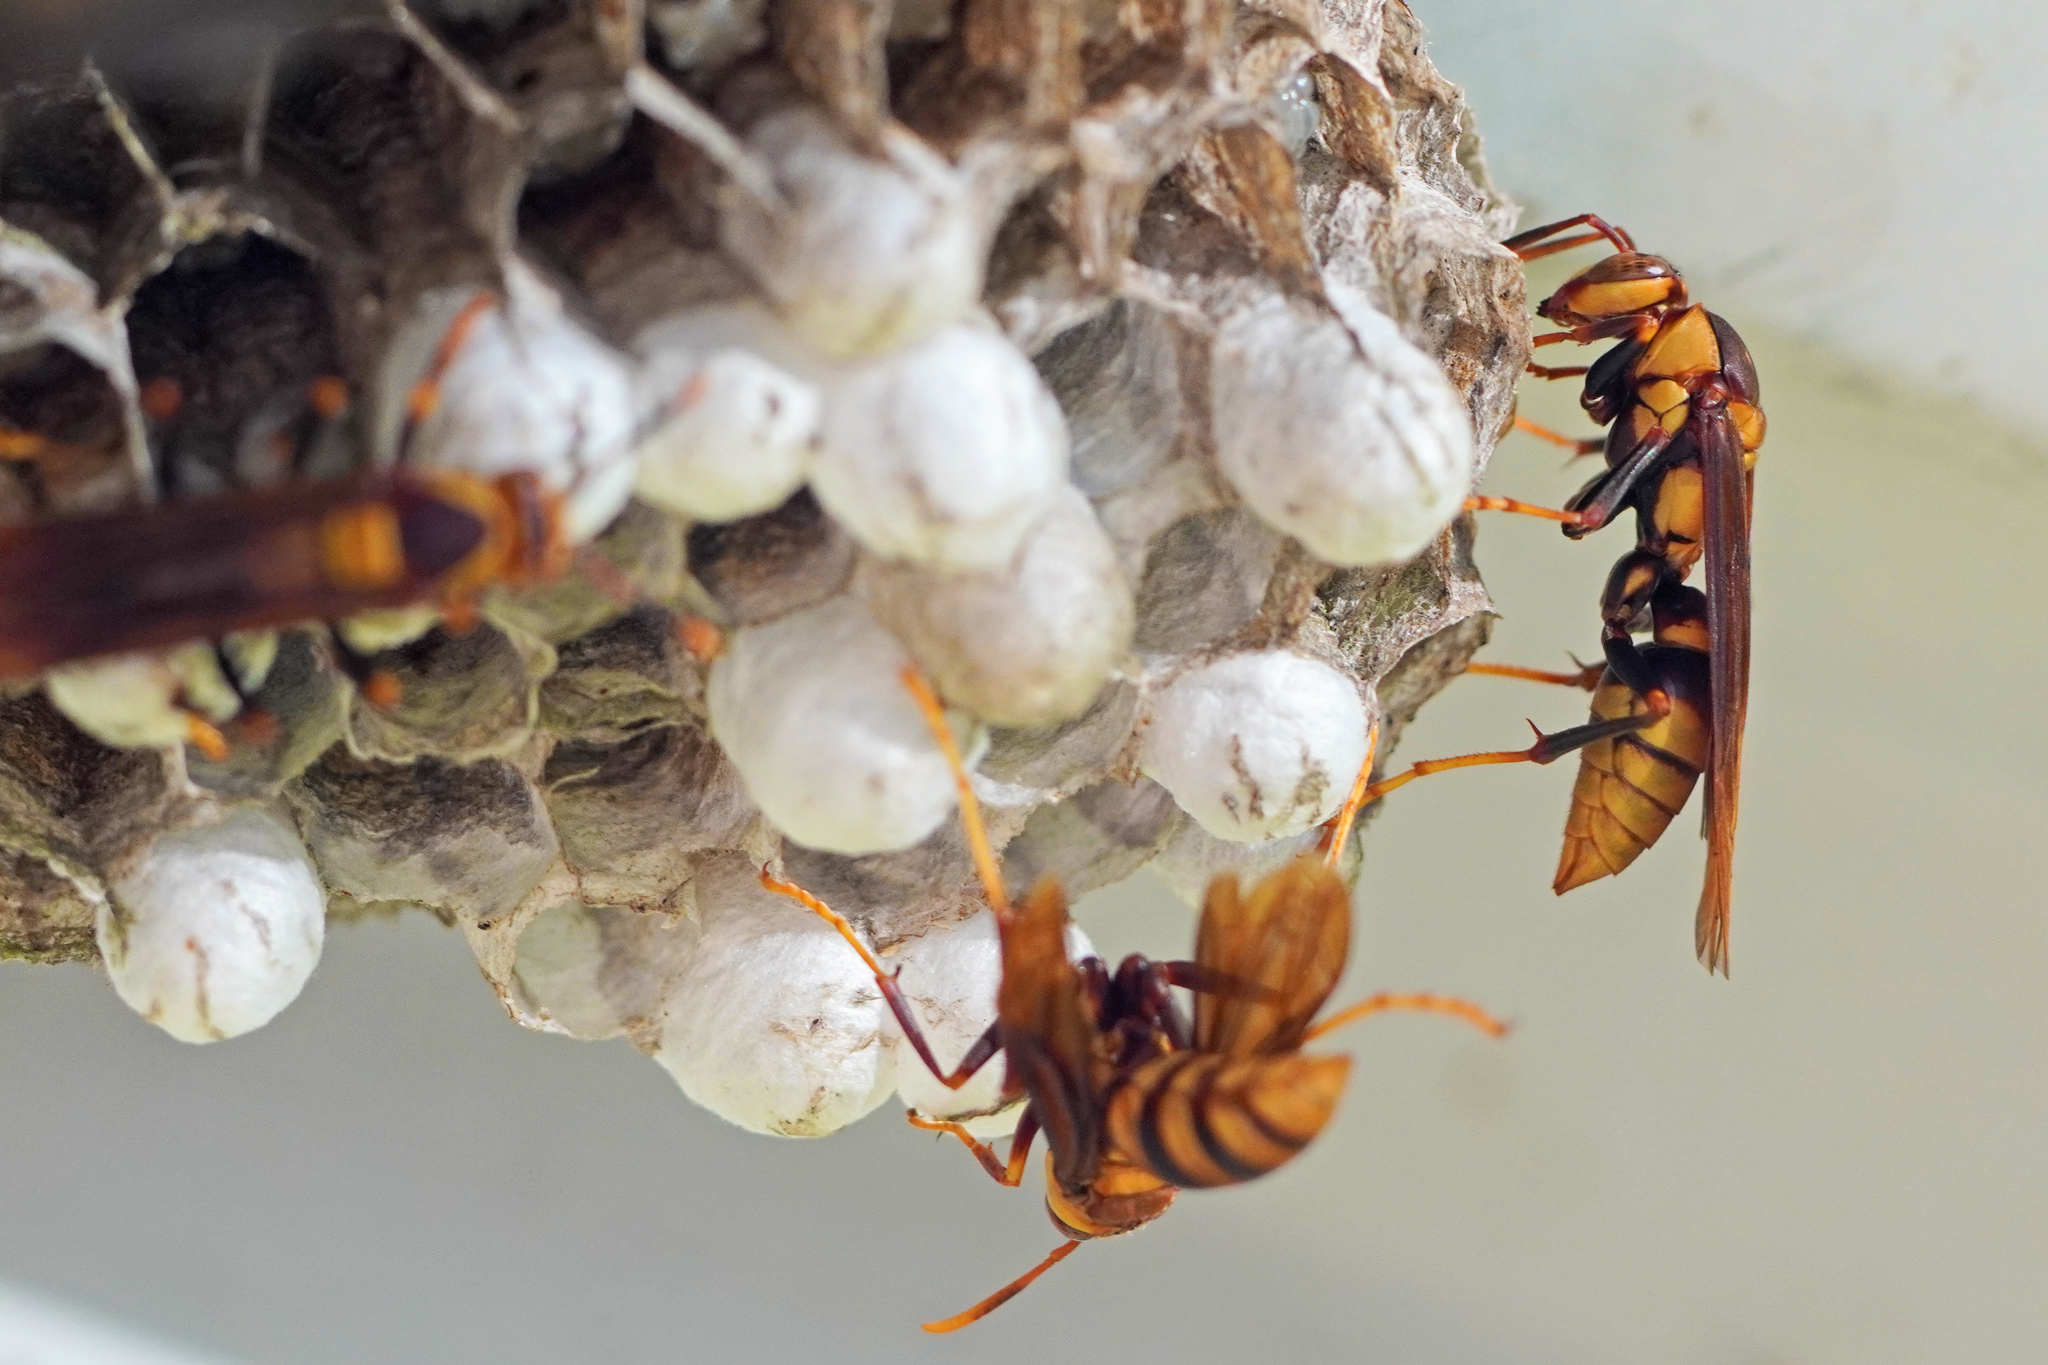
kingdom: Animalia
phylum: Arthropoda
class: Insecta
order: Hymenoptera
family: Eumenidae
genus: Polistes
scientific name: Polistes major
